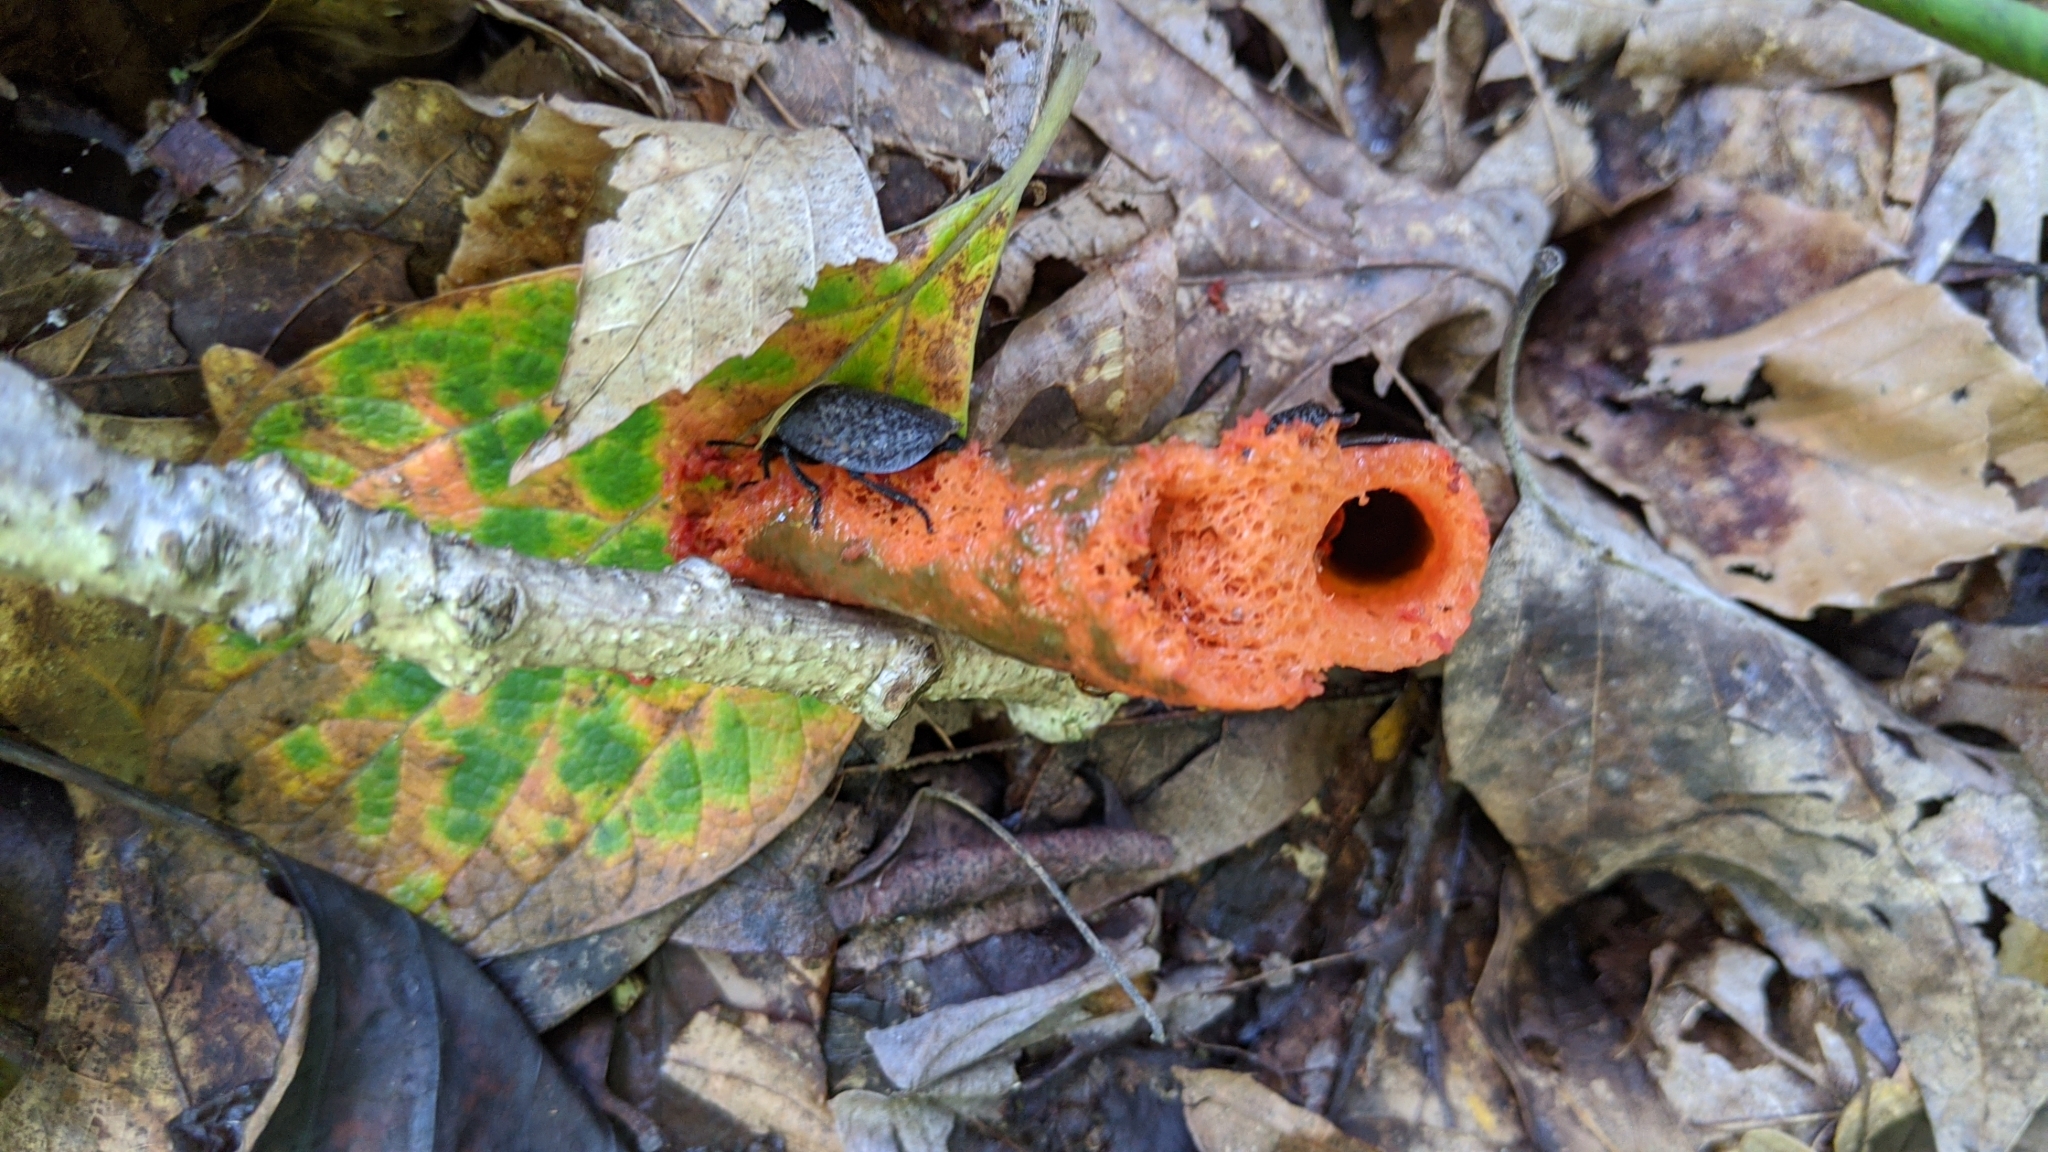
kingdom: Fungi
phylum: Basidiomycota
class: Agaricomycetes
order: Phallales
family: Phallaceae
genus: Mutinus
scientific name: Mutinus elegans
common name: Devil's dipstick
